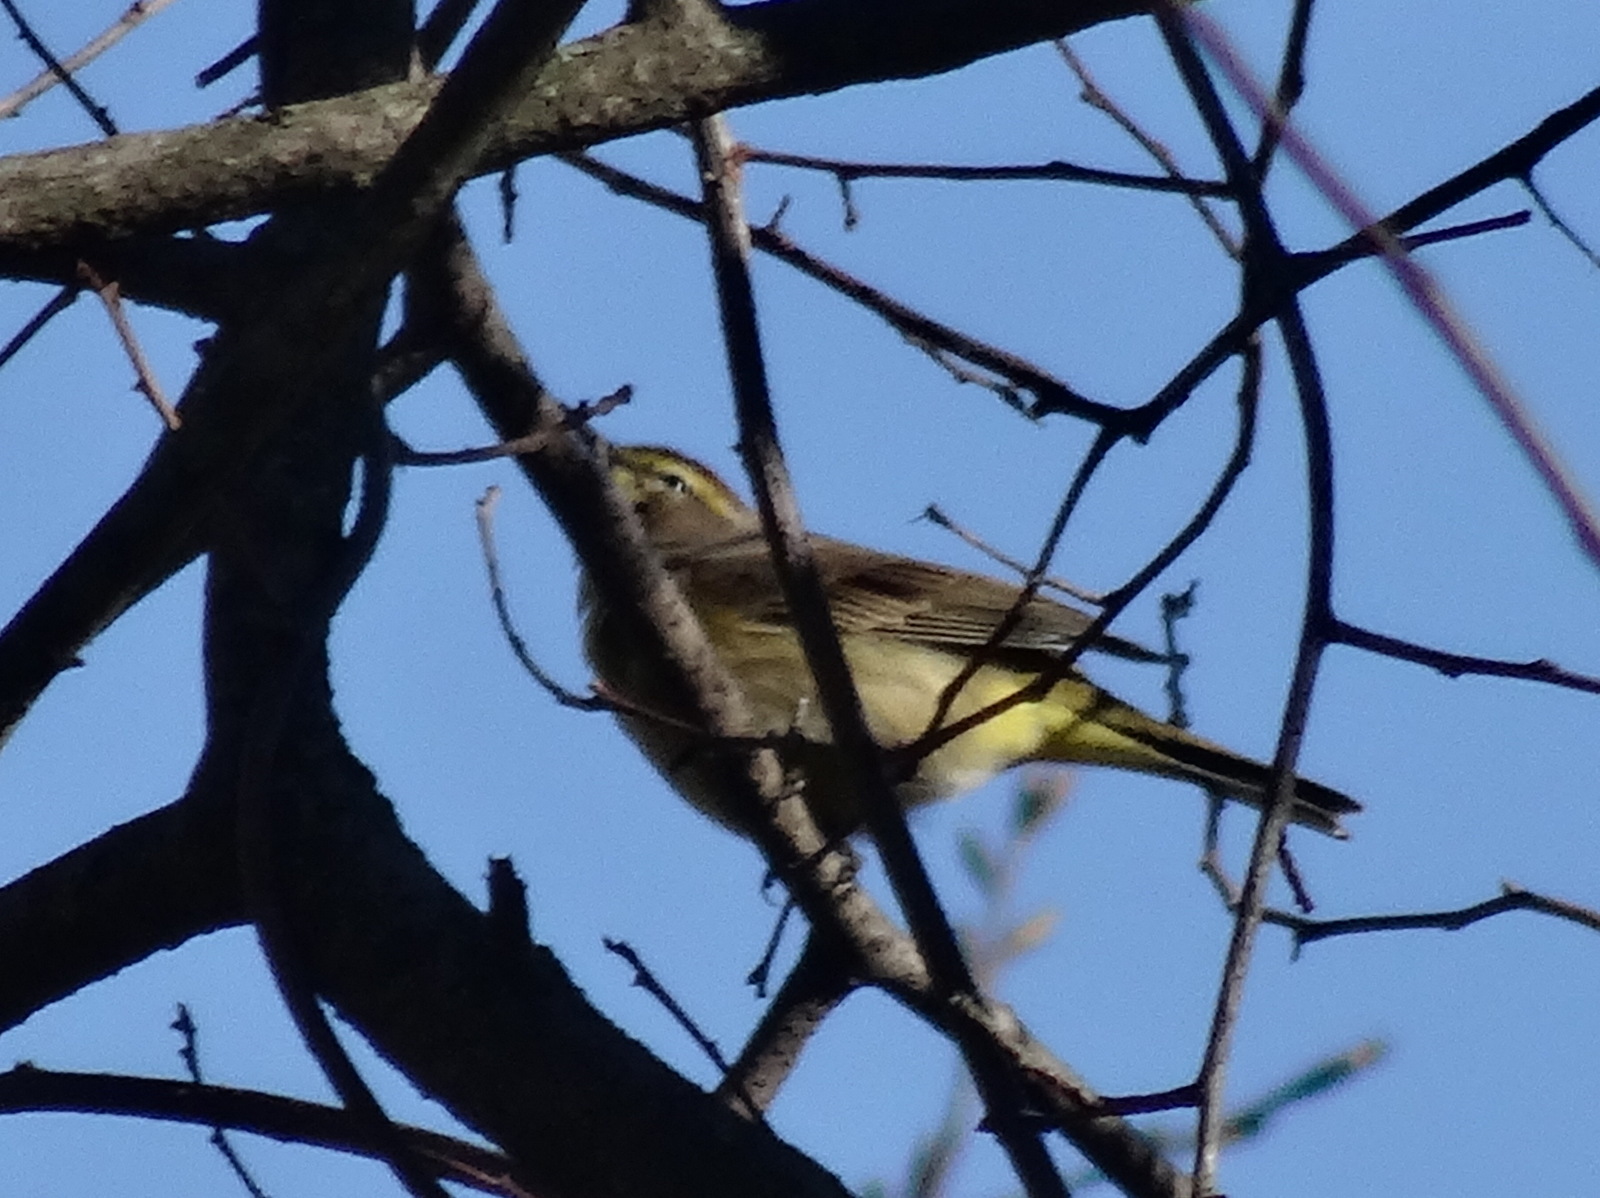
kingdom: Animalia
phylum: Chordata
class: Aves
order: Passeriformes
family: Parulidae
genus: Setophaga
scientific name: Setophaga palmarum
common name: Palm warbler
